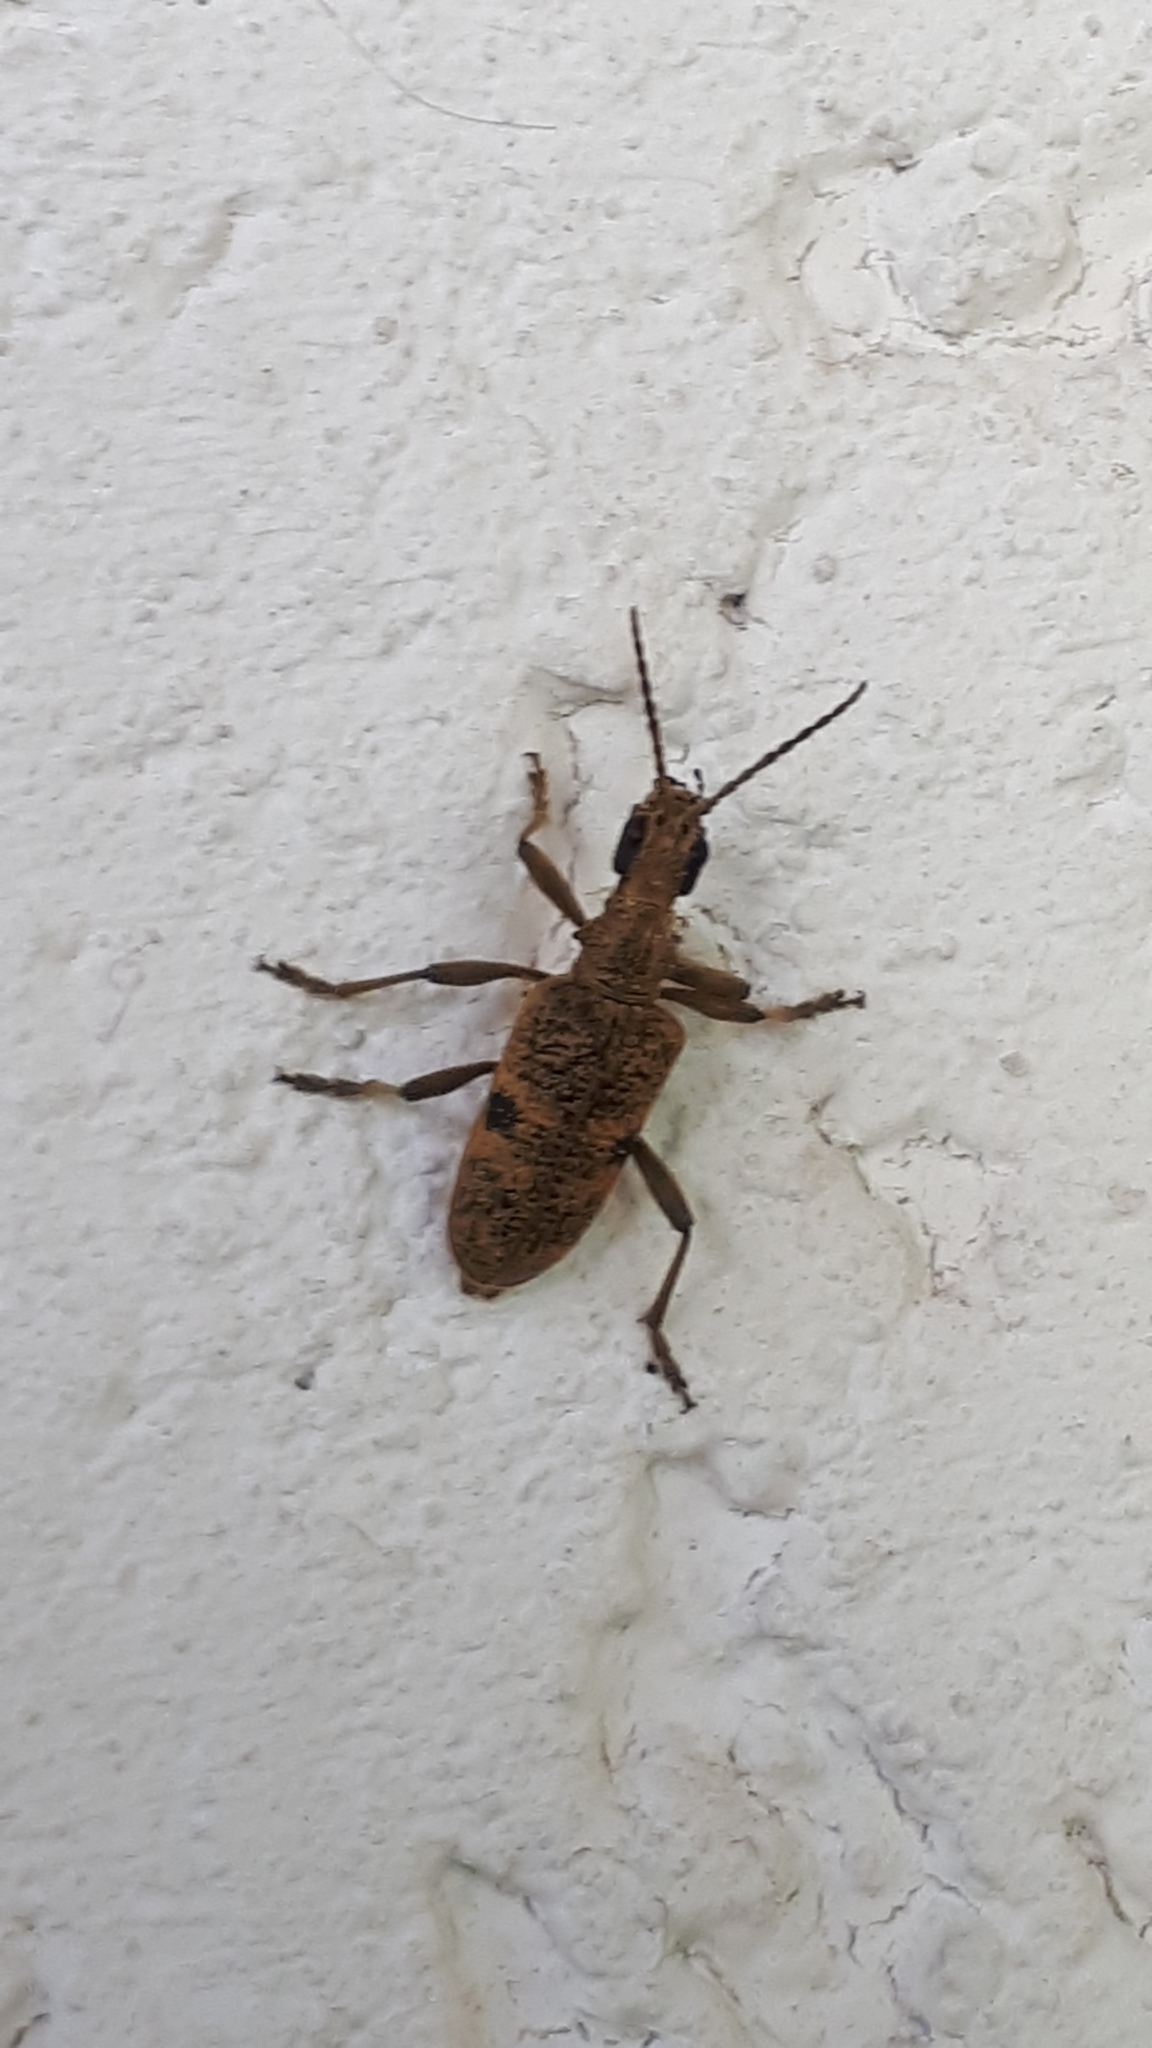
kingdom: Animalia
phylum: Arthropoda
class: Insecta
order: Coleoptera
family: Cerambycidae
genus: Rhagium
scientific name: Rhagium mordax
